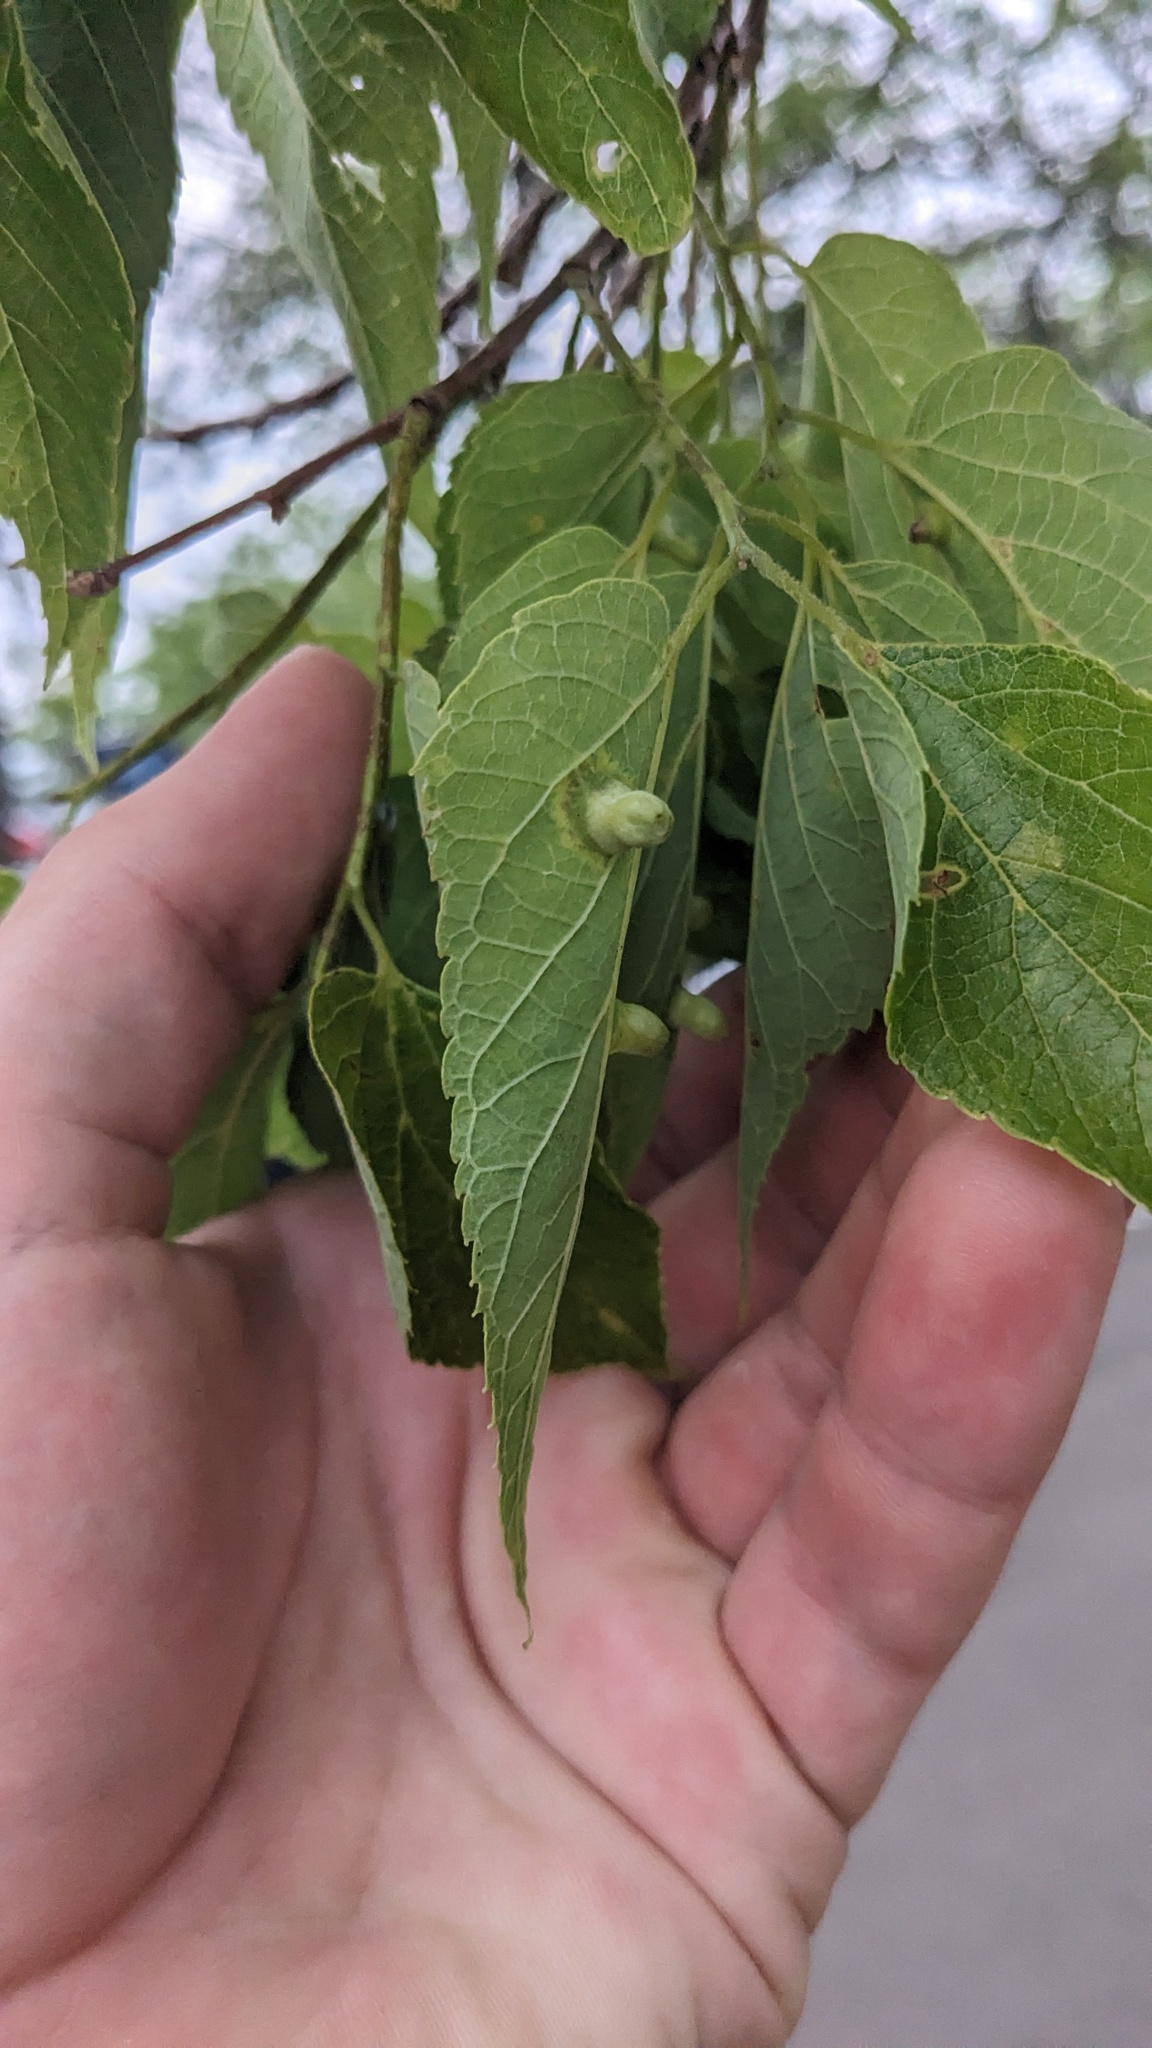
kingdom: Animalia
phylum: Arthropoda
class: Insecta
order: Hemiptera
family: Aphalaridae
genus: Pachypsylla
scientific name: Pachypsylla celtidismamma
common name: Hackberry nipplegall psyllid
